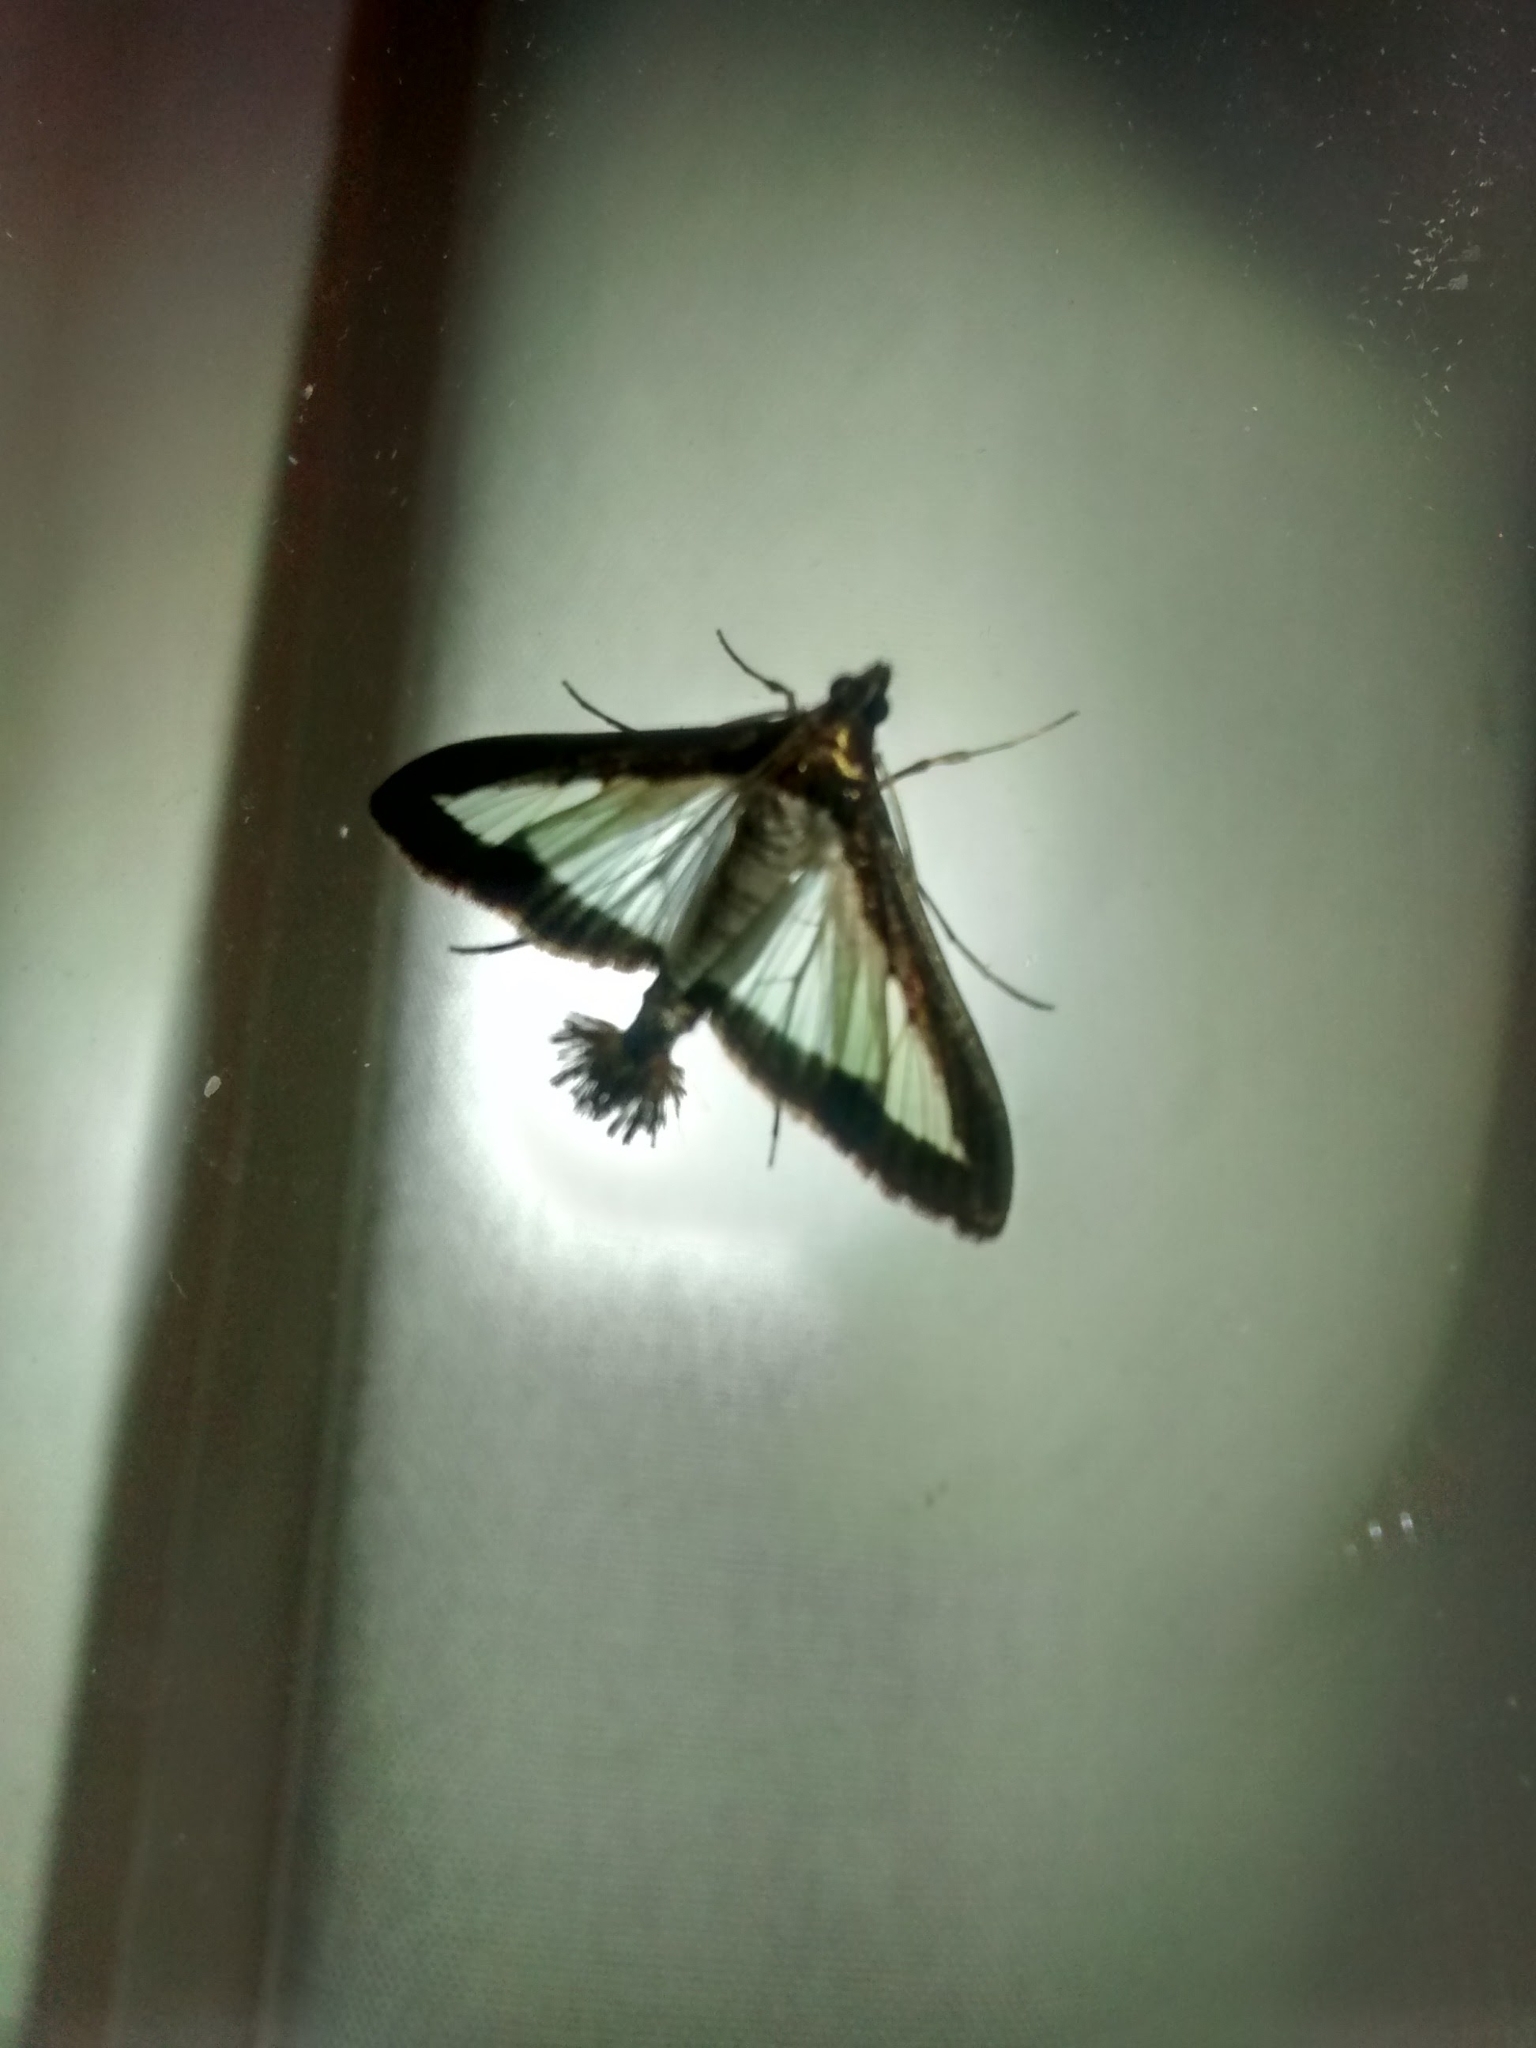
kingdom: Animalia
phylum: Arthropoda
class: Insecta
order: Lepidoptera
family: Crambidae
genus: Diaphania
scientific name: Diaphania hyalinata
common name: Melonworm
